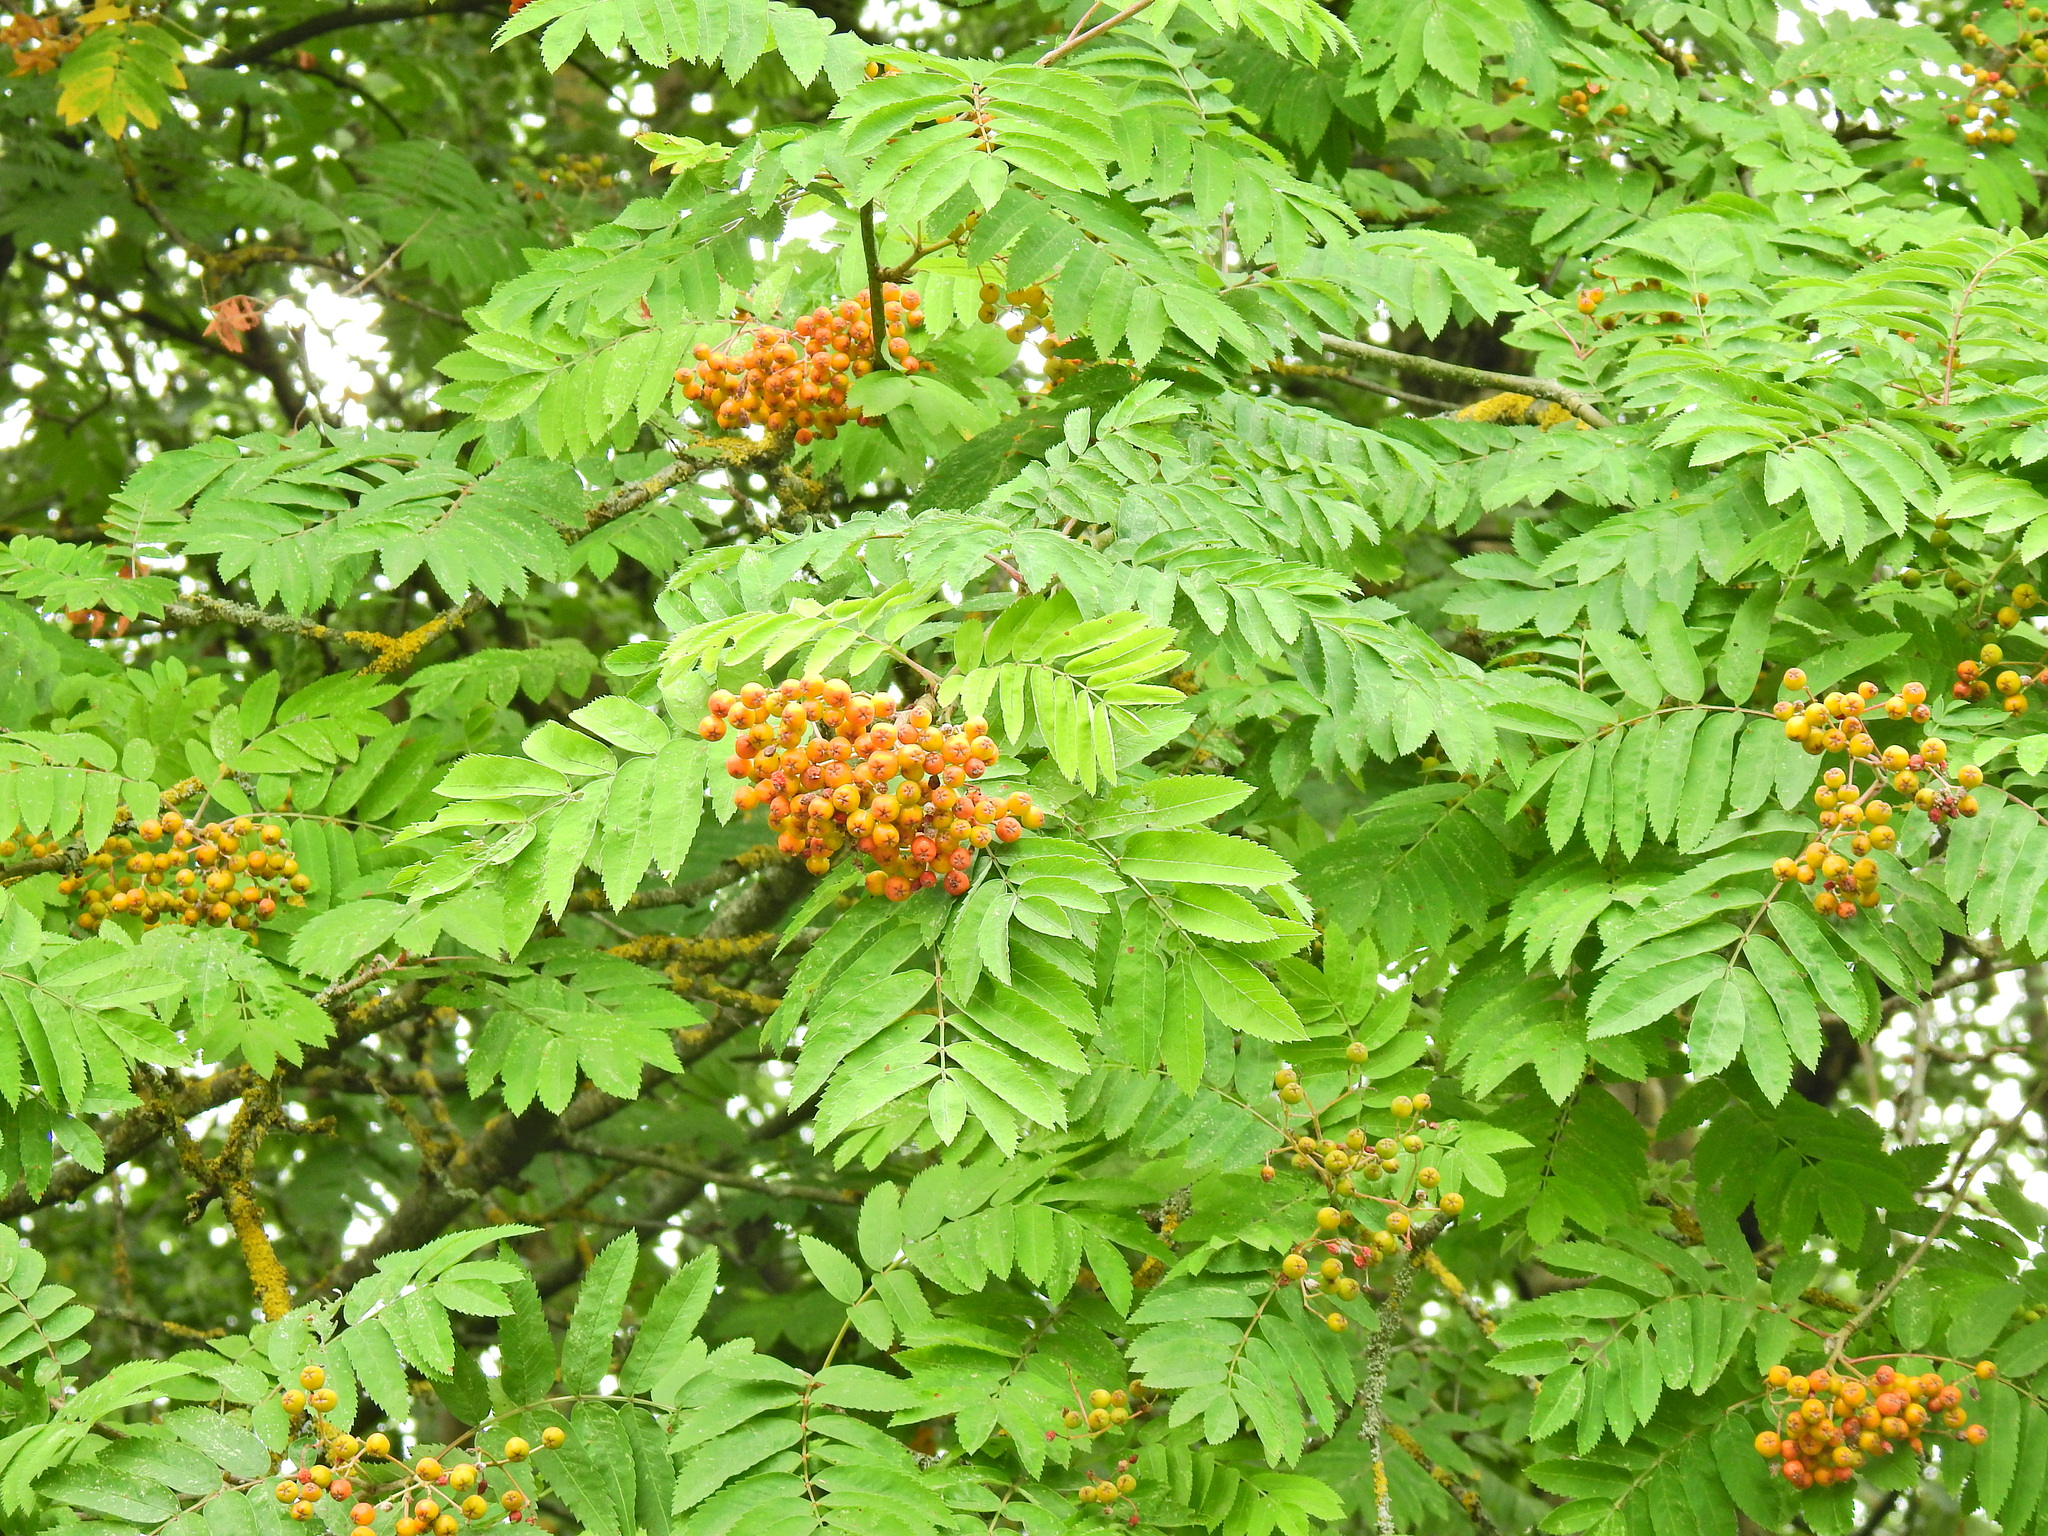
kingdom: Plantae
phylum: Tracheophyta
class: Magnoliopsida
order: Rosales
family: Rosaceae
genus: Sorbus
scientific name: Sorbus aucuparia
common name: Rowan
